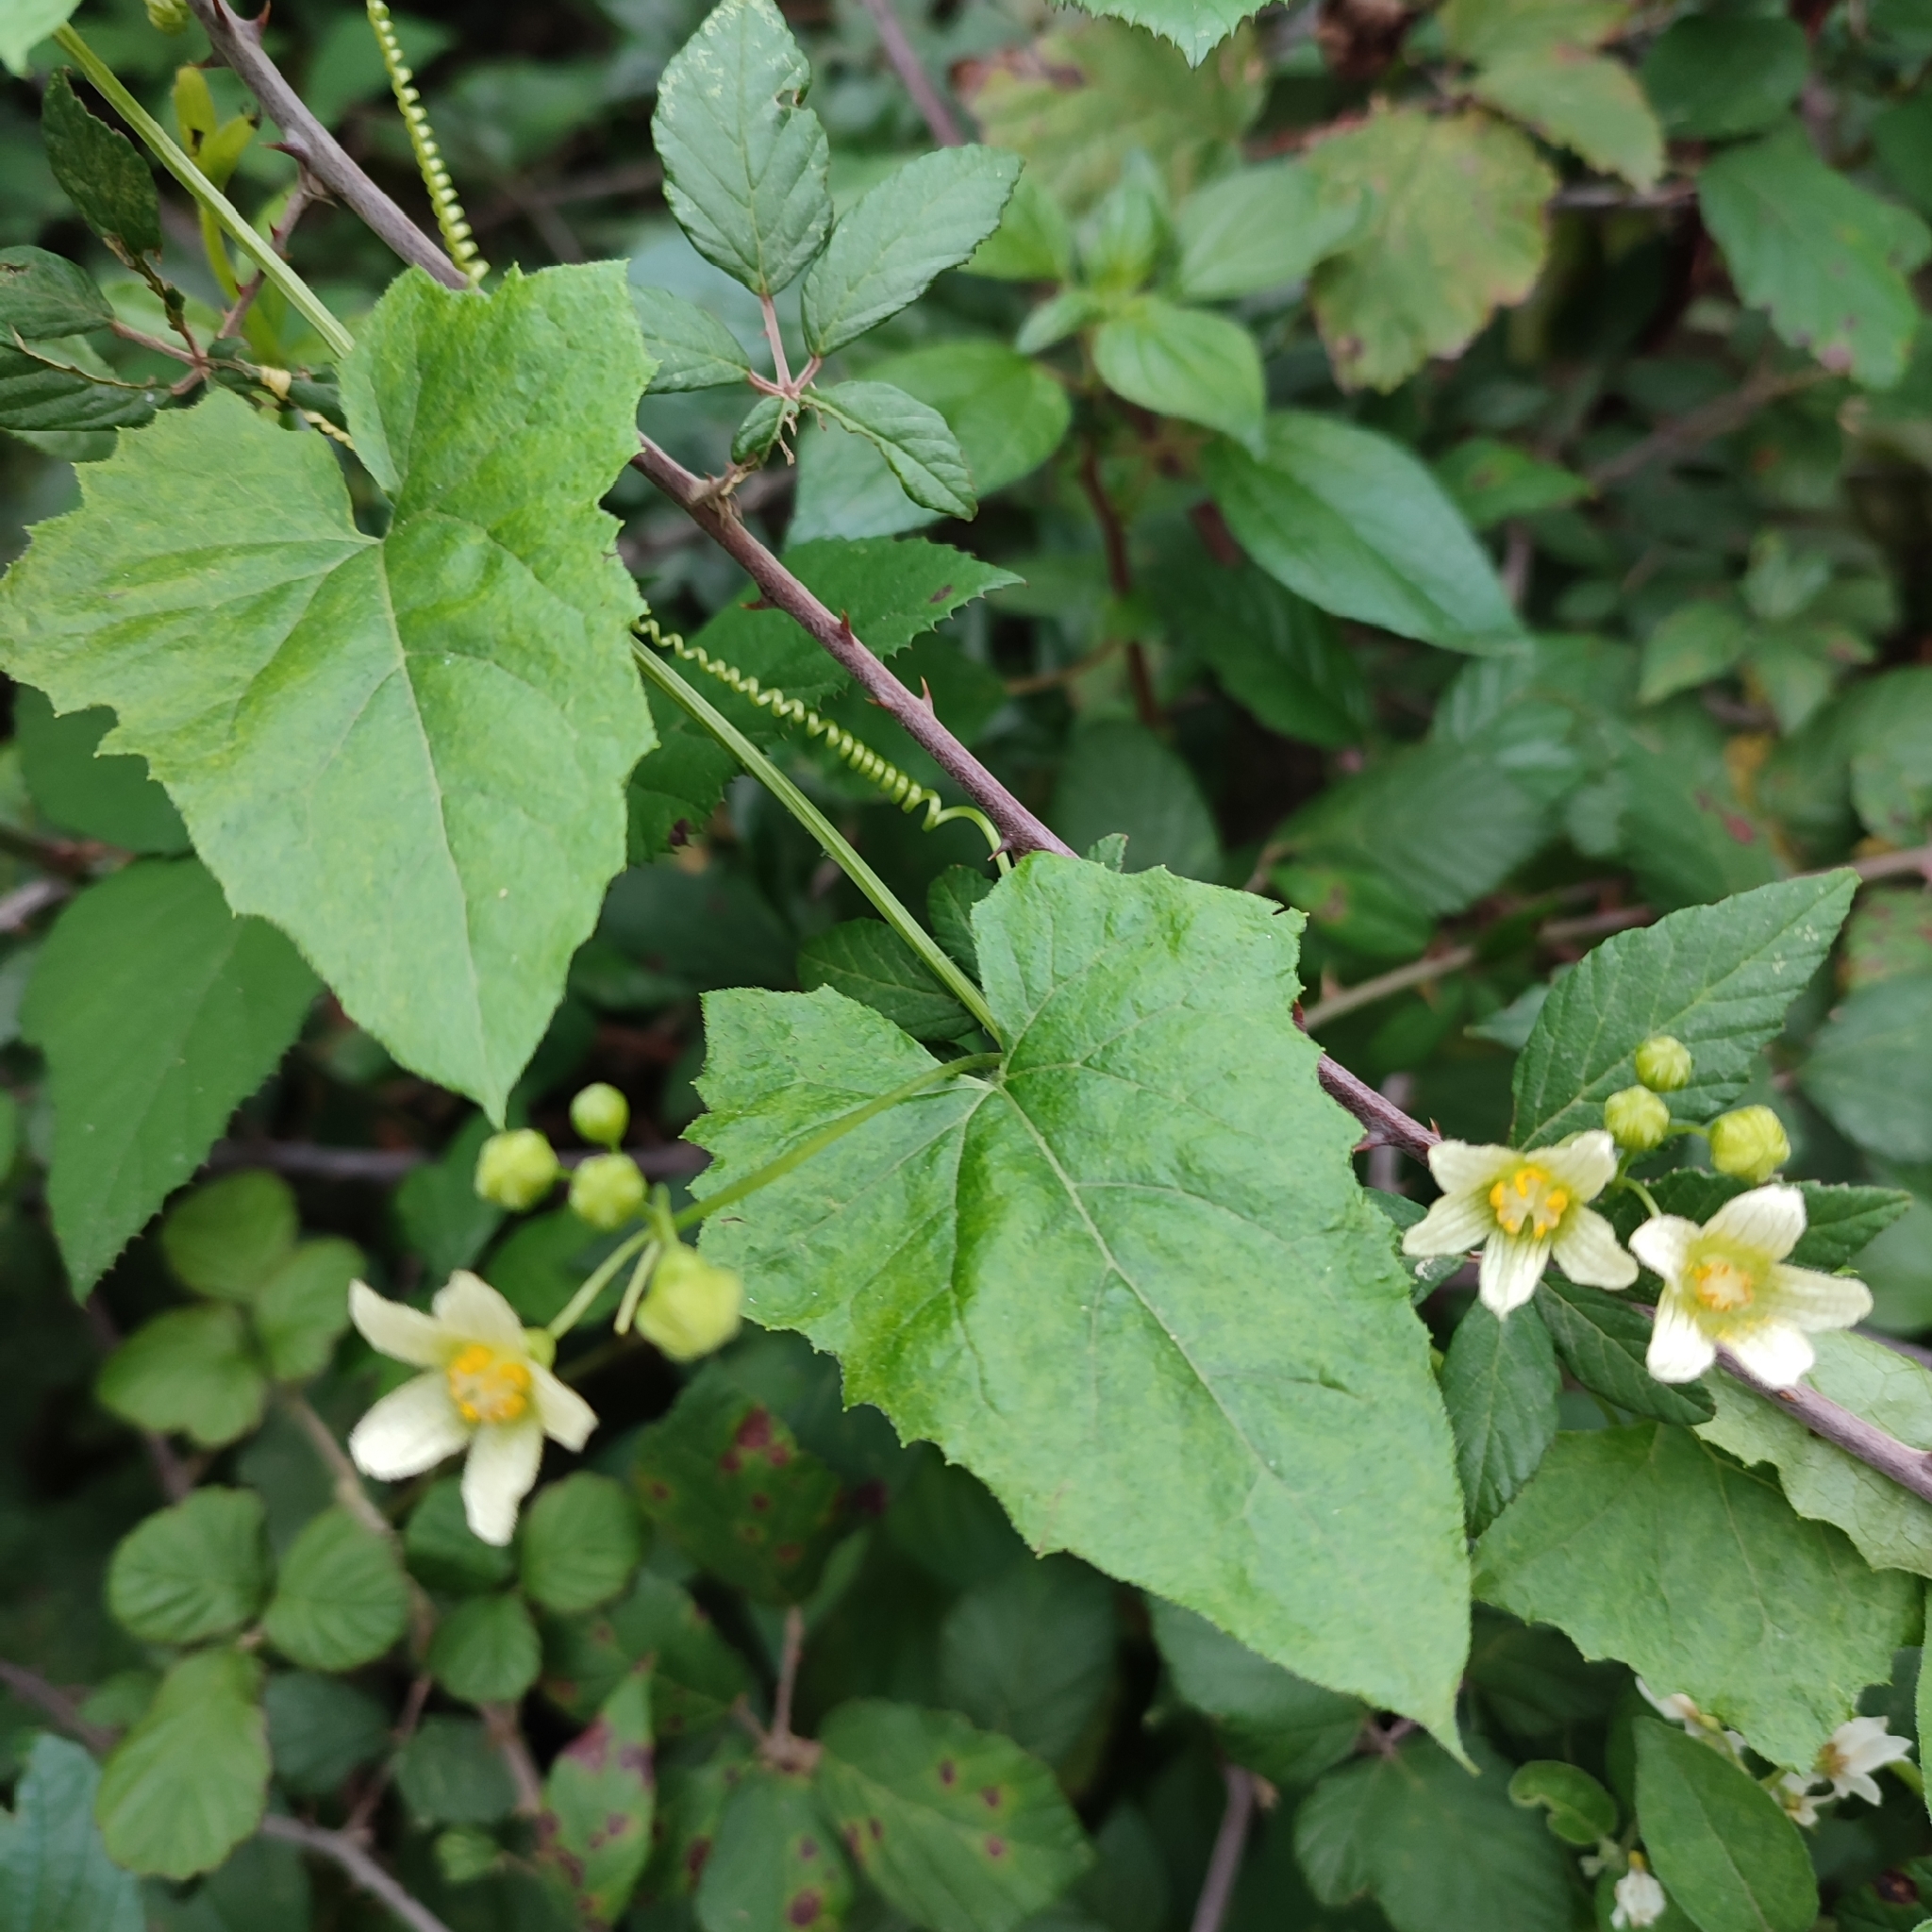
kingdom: Plantae
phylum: Tracheophyta
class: Magnoliopsida
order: Cucurbitales
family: Cucurbitaceae
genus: Bryonia
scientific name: Bryonia cretica
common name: Cretan bryony
